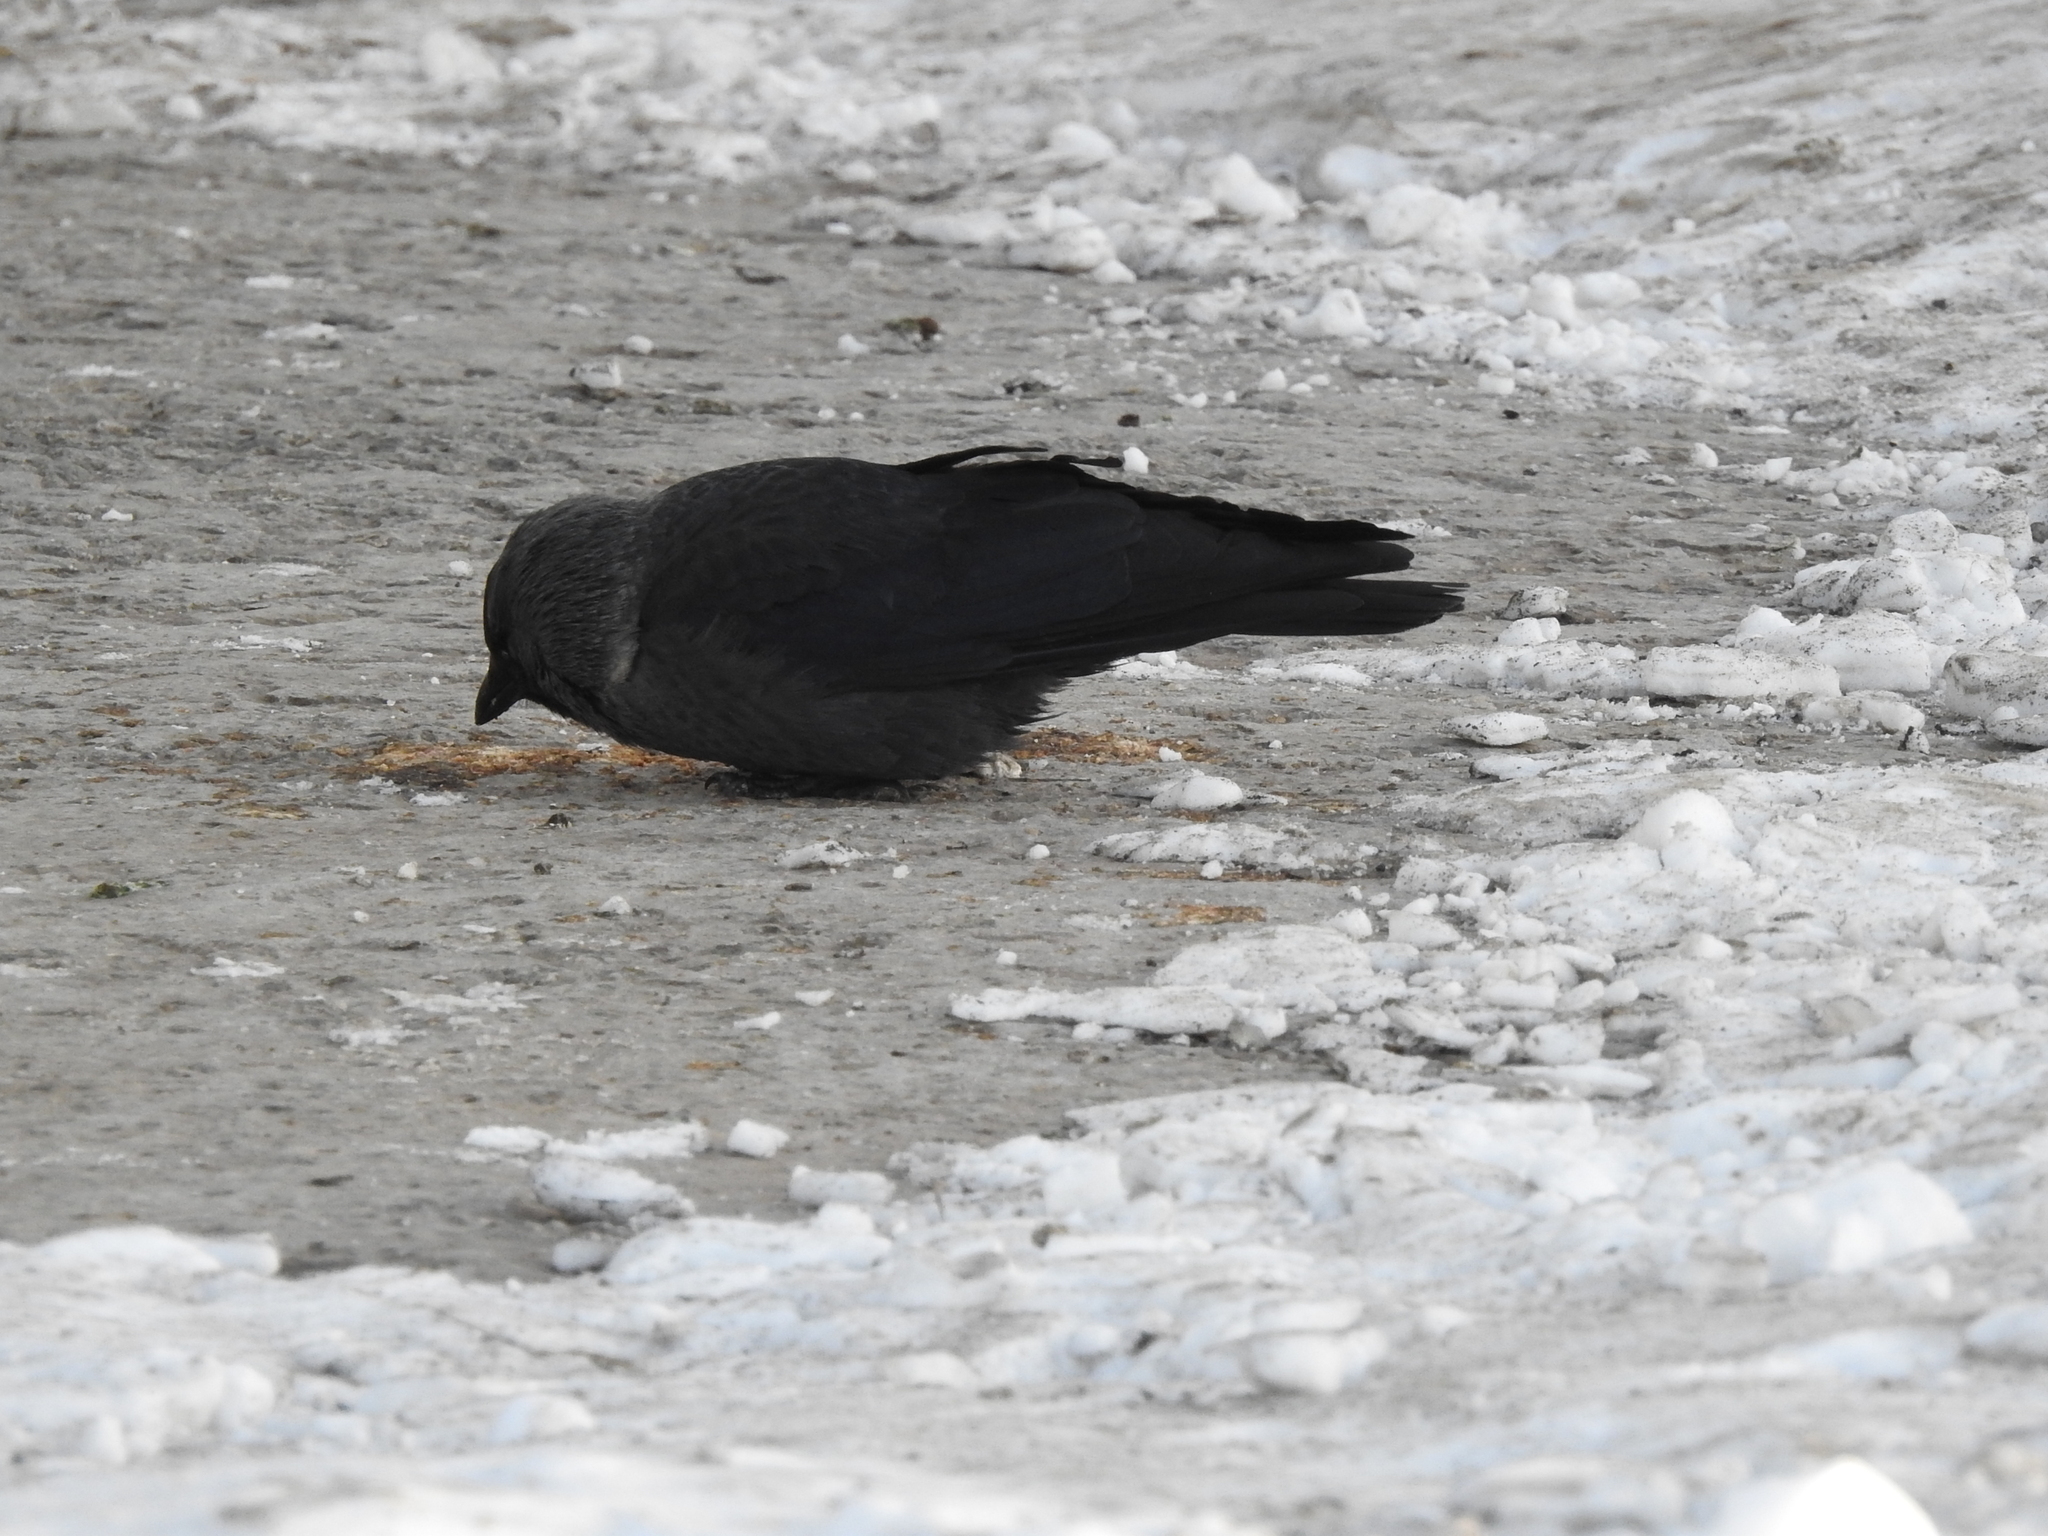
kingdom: Animalia
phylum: Chordata
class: Aves
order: Passeriformes
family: Corvidae
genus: Coloeus
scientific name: Coloeus monedula
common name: Western jackdaw
